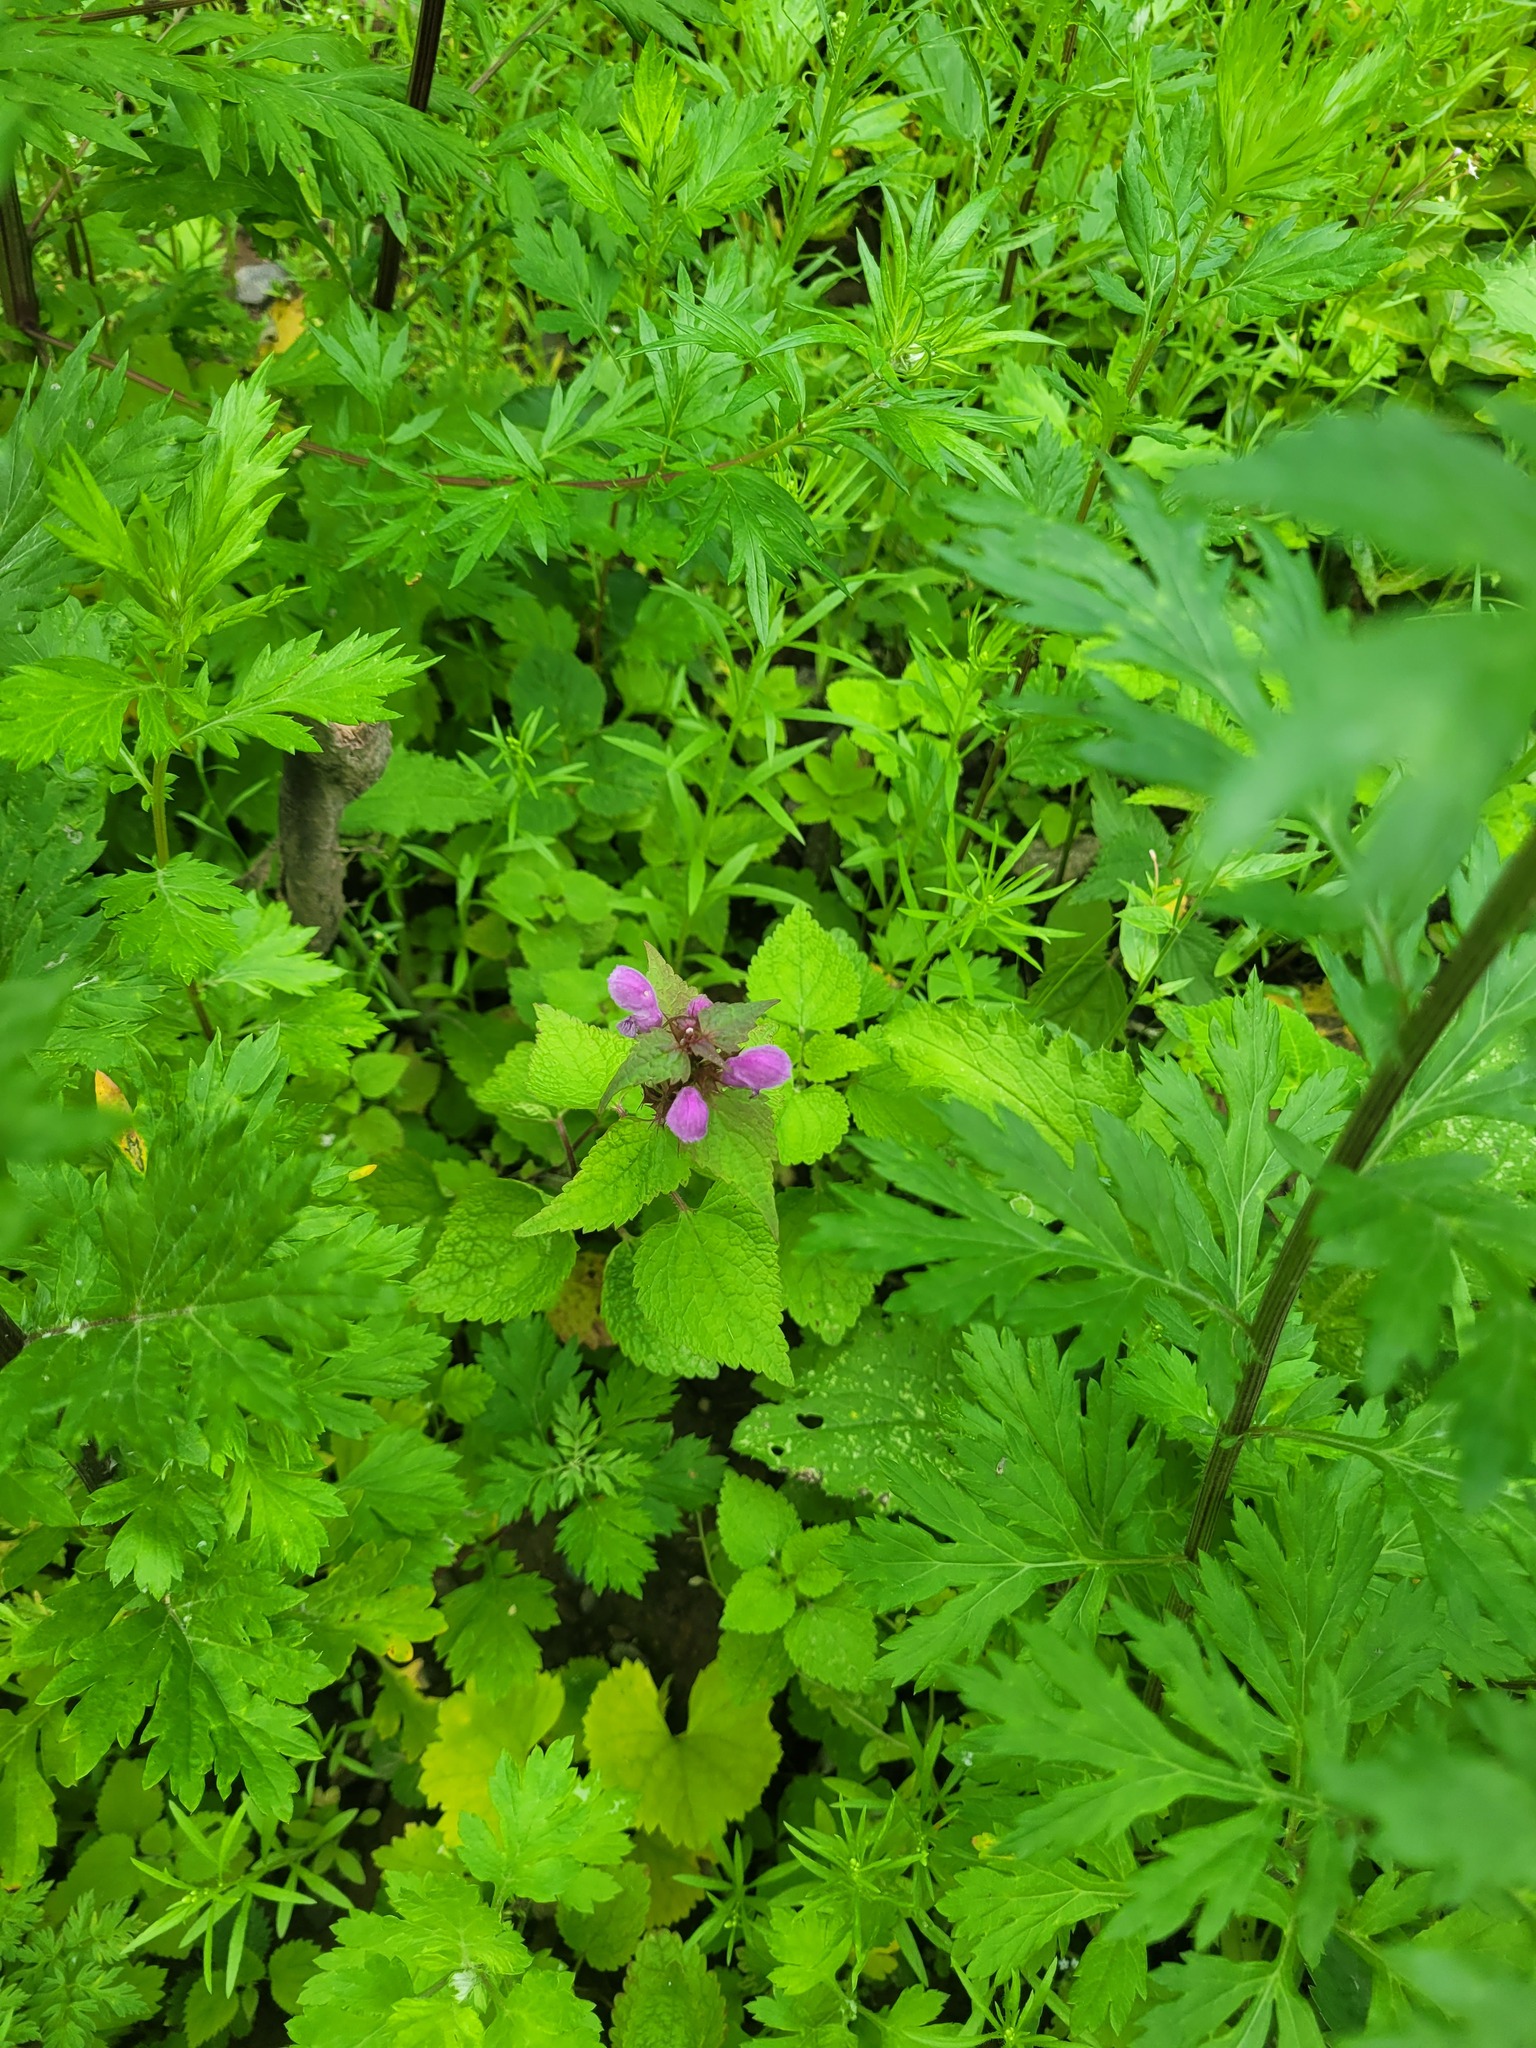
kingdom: Plantae
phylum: Tracheophyta
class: Magnoliopsida
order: Lamiales
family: Lamiaceae
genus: Lamium
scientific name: Lamium maculatum
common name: Spotted dead-nettle
